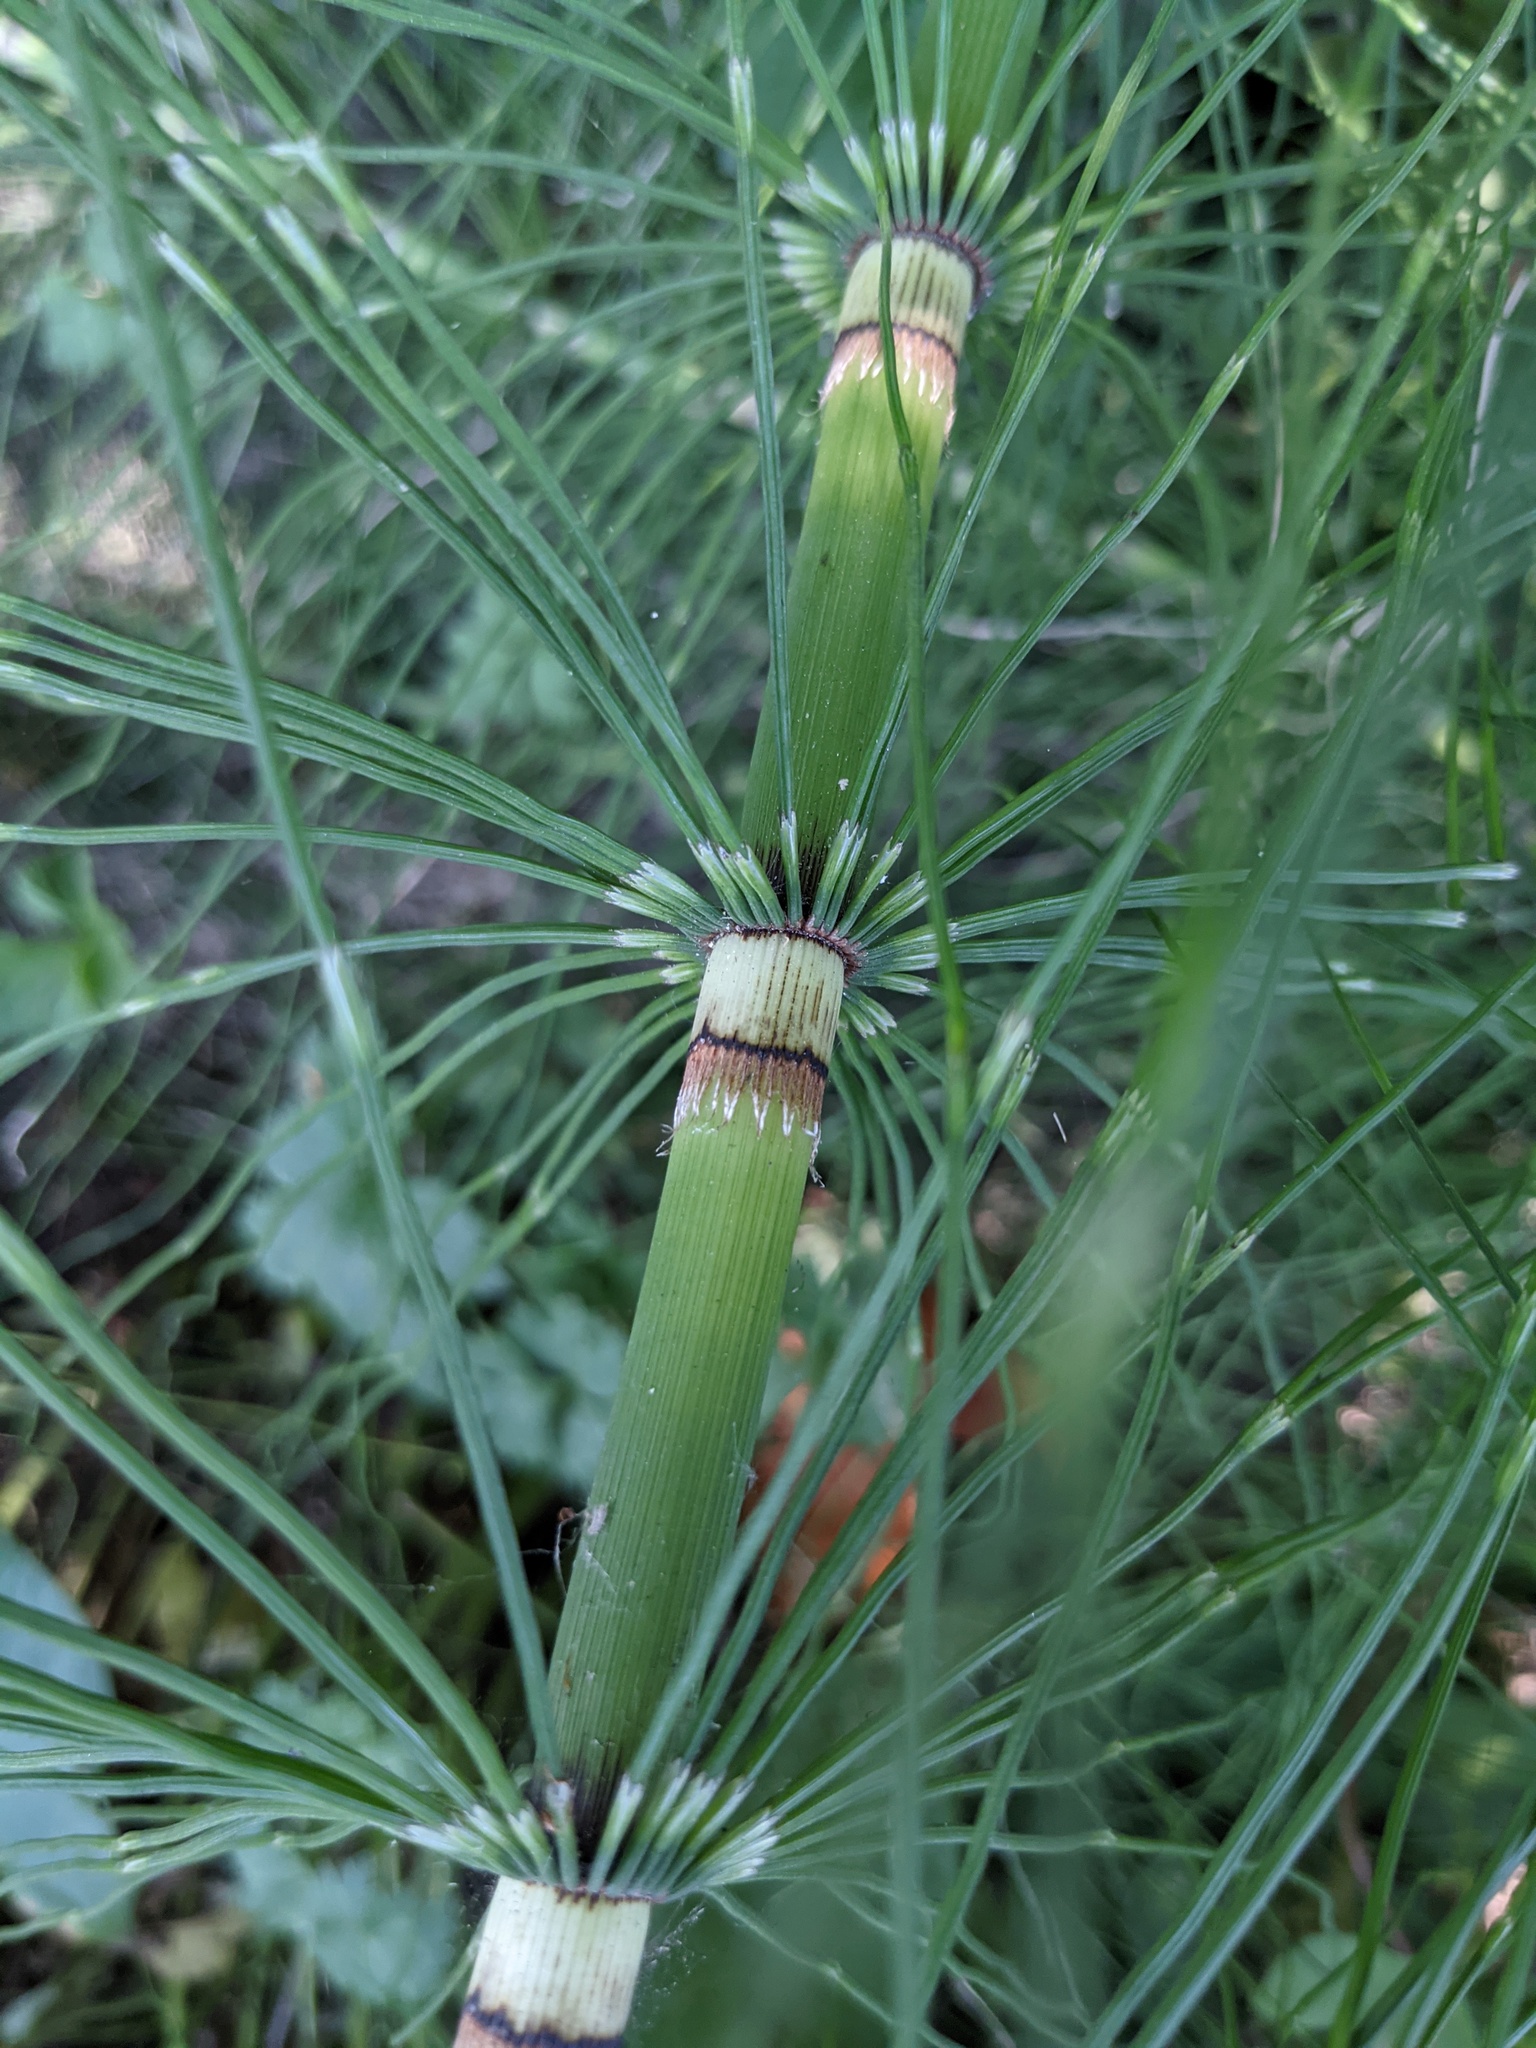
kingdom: Plantae
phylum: Tracheophyta
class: Polypodiopsida
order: Equisetales
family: Equisetaceae
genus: Equisetum
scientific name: Equisetum braunii
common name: Braun's horsetail
